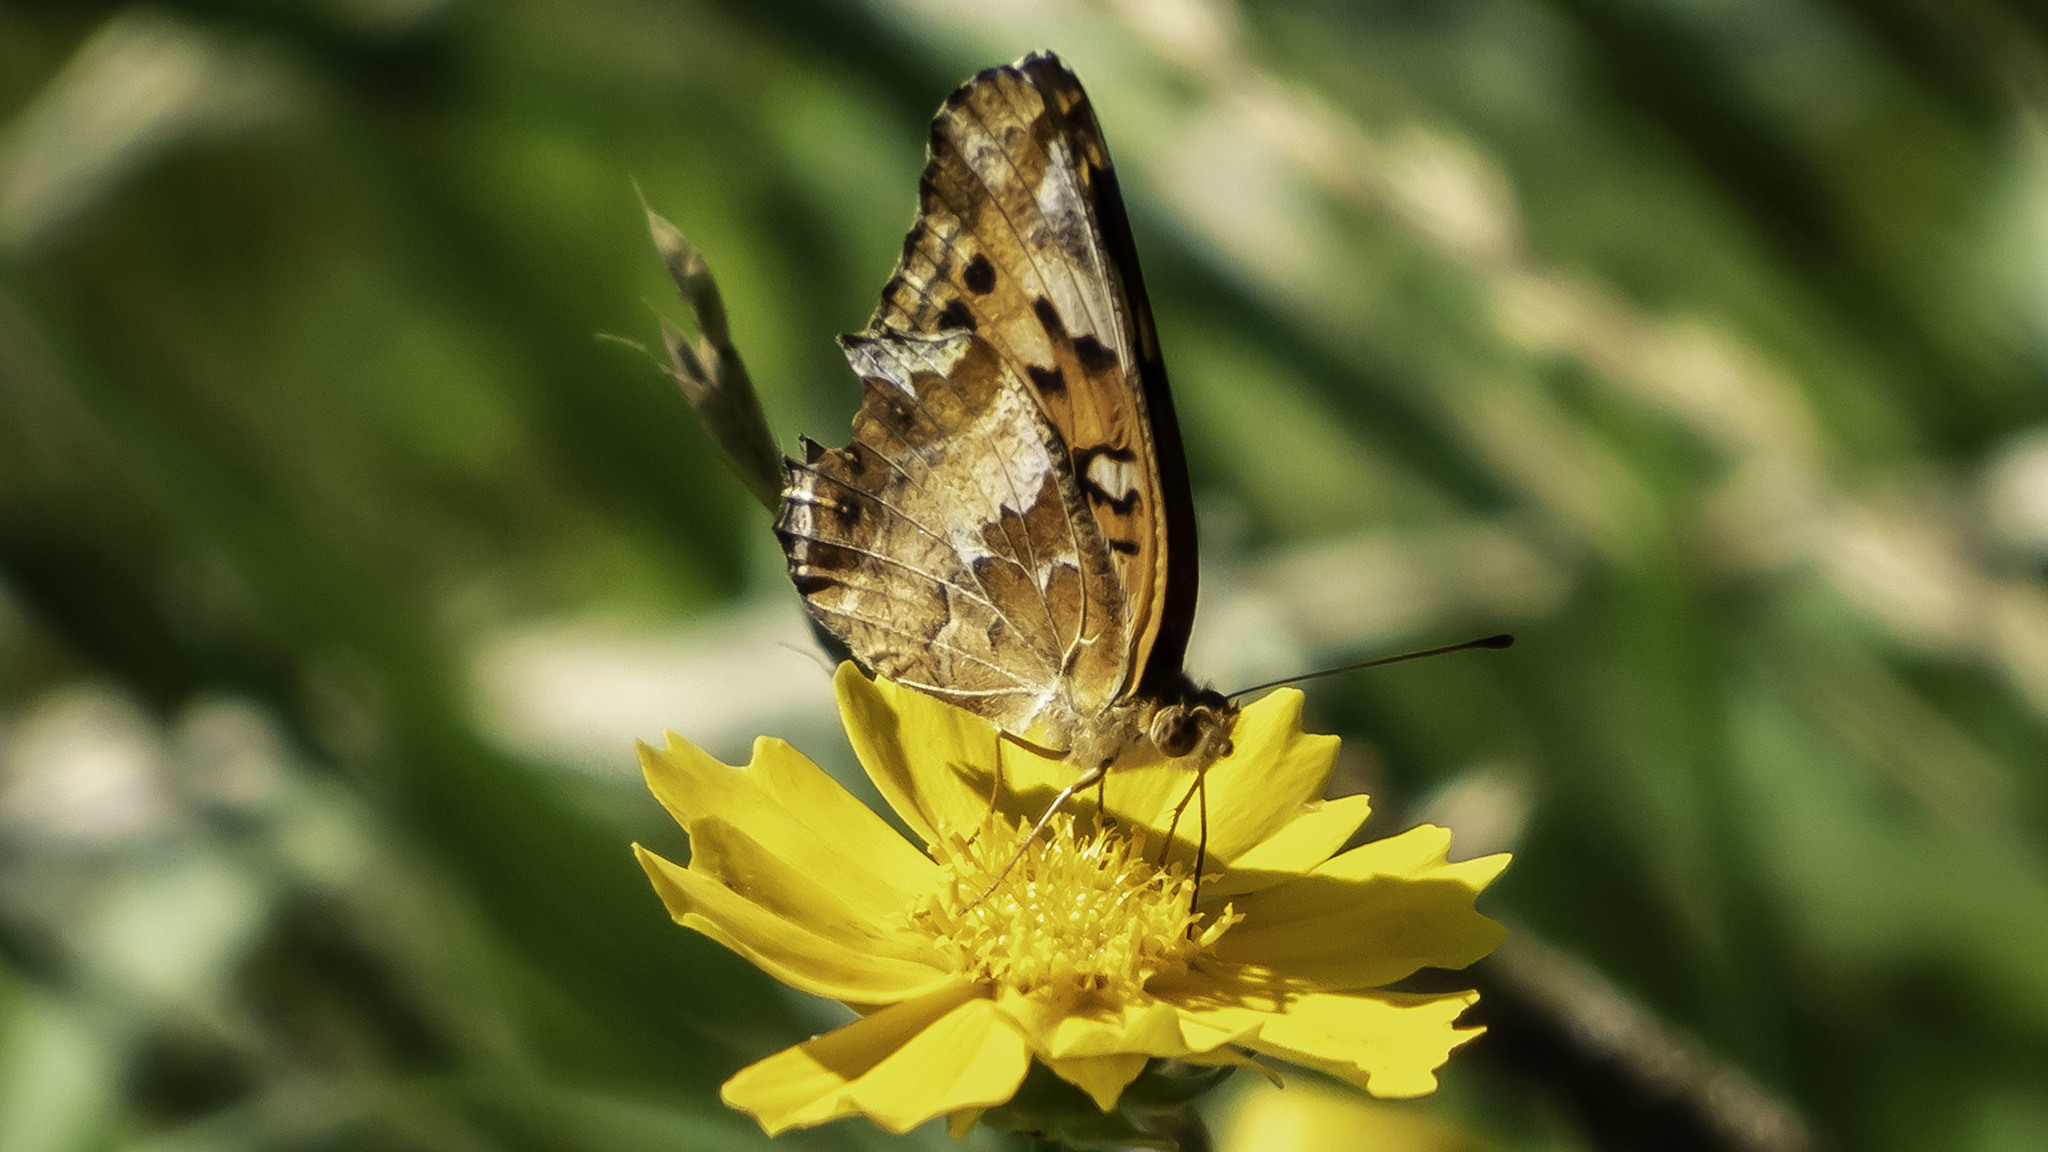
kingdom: Animalia
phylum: Arthropoda
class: Insecta
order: Lepidoptera
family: Nymphalidae
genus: Euptoieta
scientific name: Euptoieta claudia
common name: Variegated fritillary
